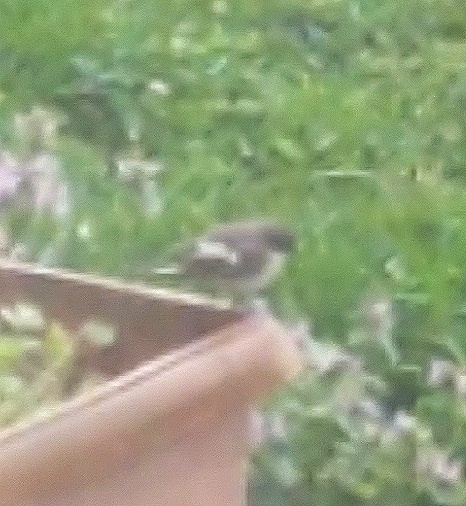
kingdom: Animalia
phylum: Chordata
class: Aves
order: Passeriformes
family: Muscicapidae
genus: Ficedula
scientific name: Ficedula hypoleuca
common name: European pied flycatcher
